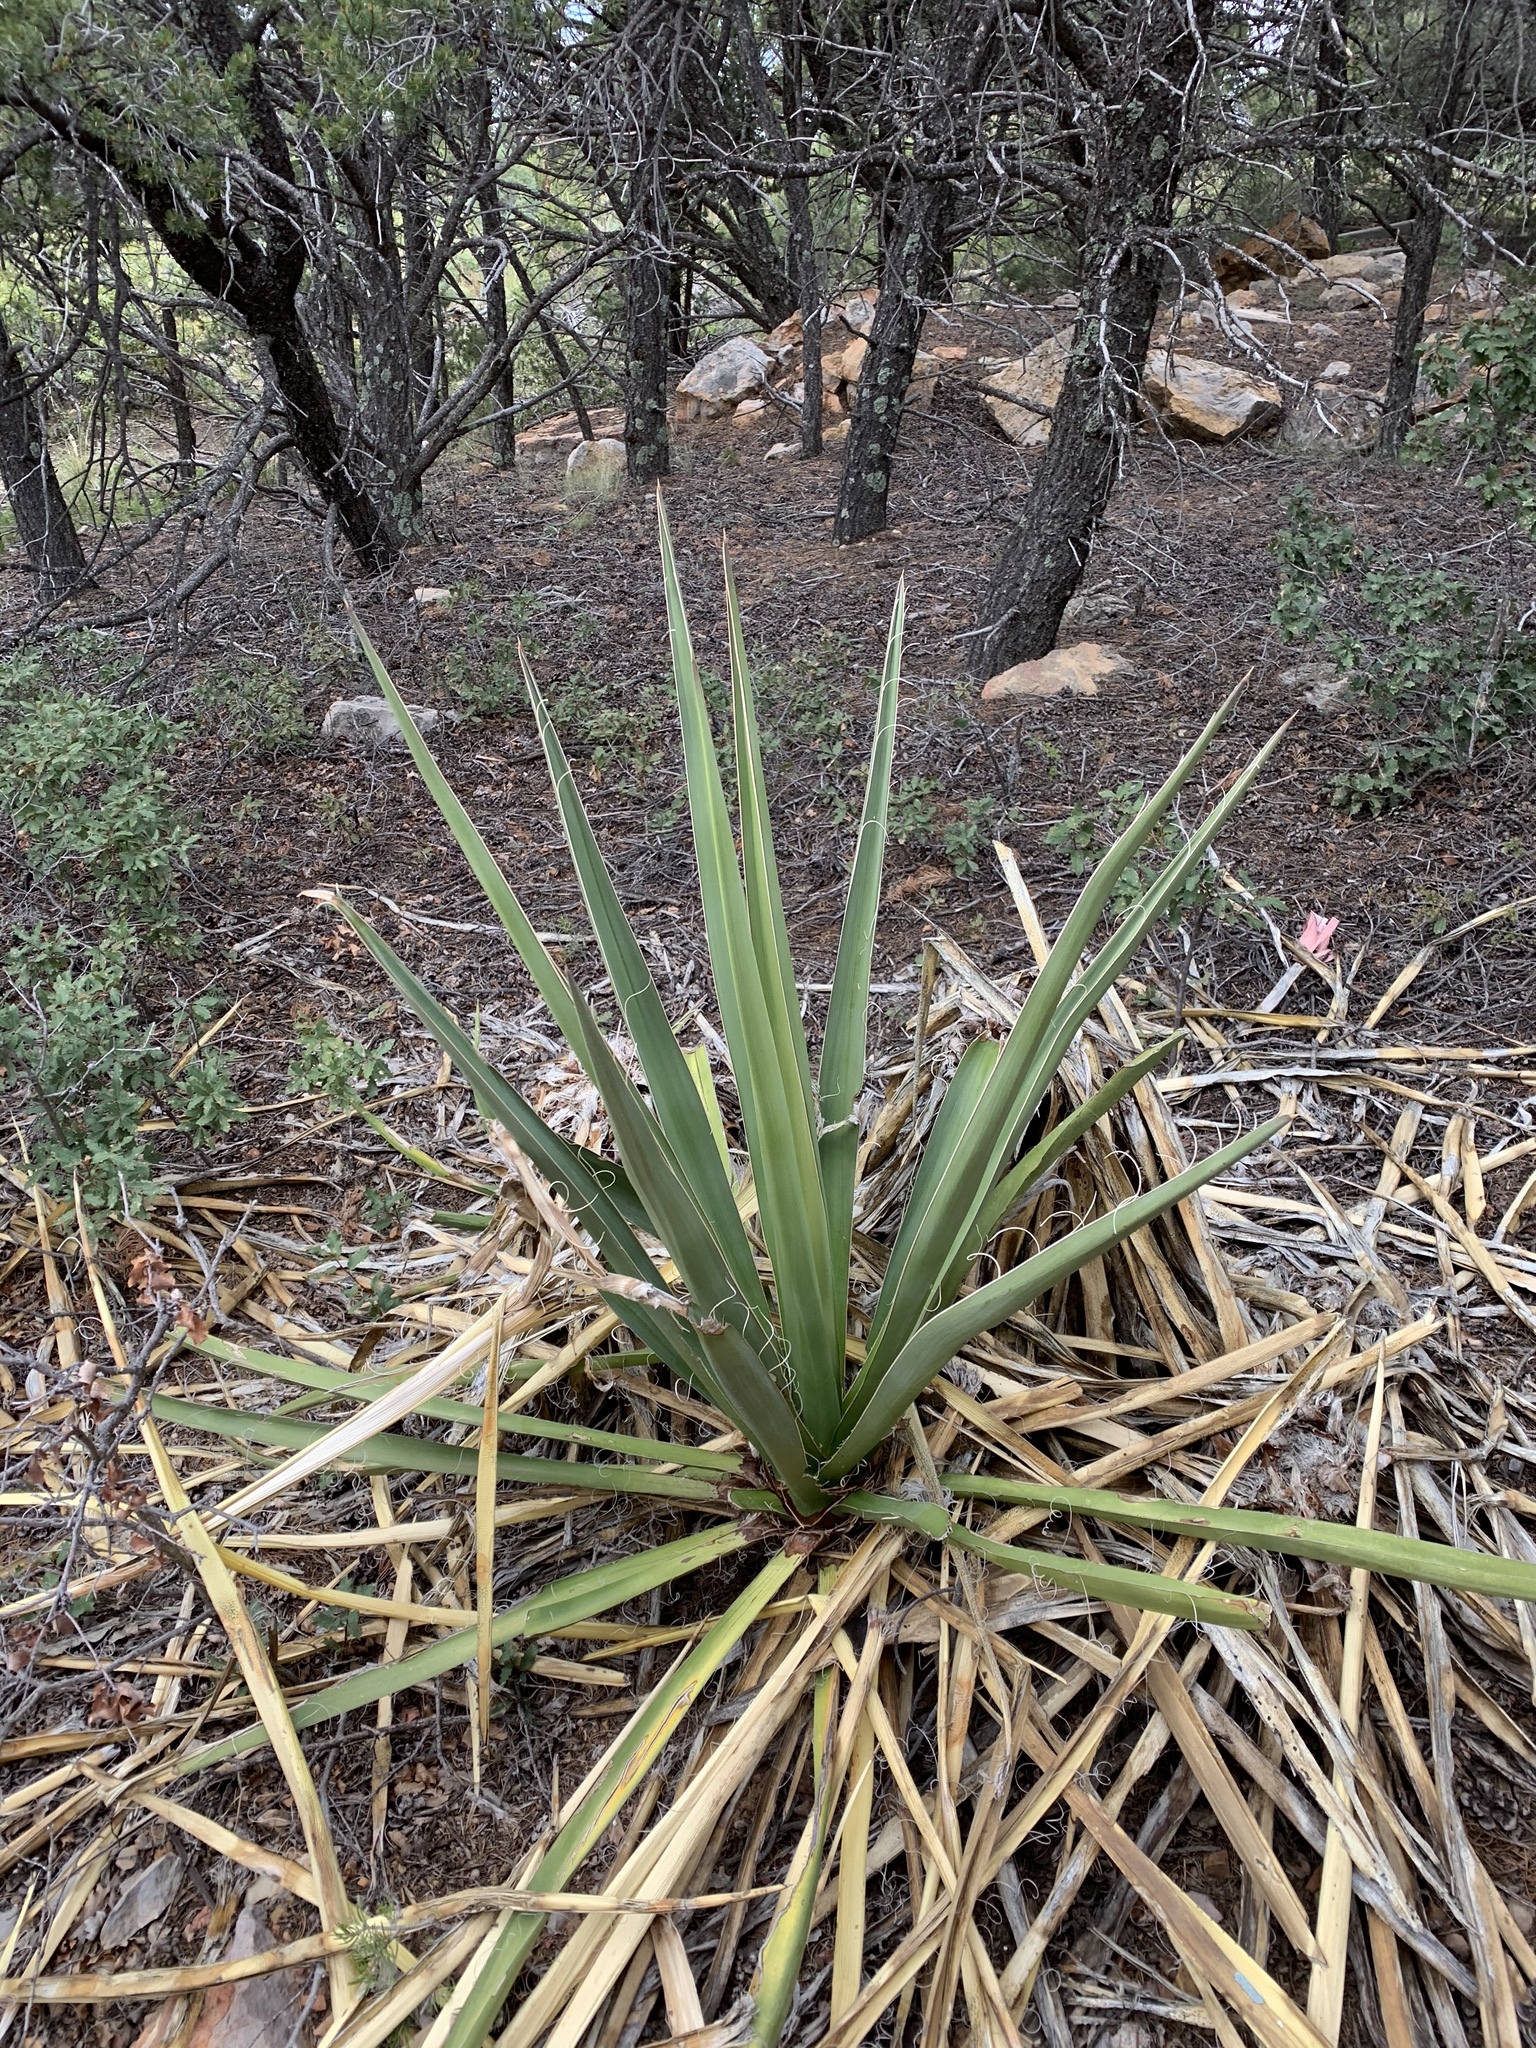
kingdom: Plantae
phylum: Tracheophyta
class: Liliopsida
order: Asparagales
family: Asparagaceae
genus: Yucca
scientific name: Yucca baccata
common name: Banana yucca
